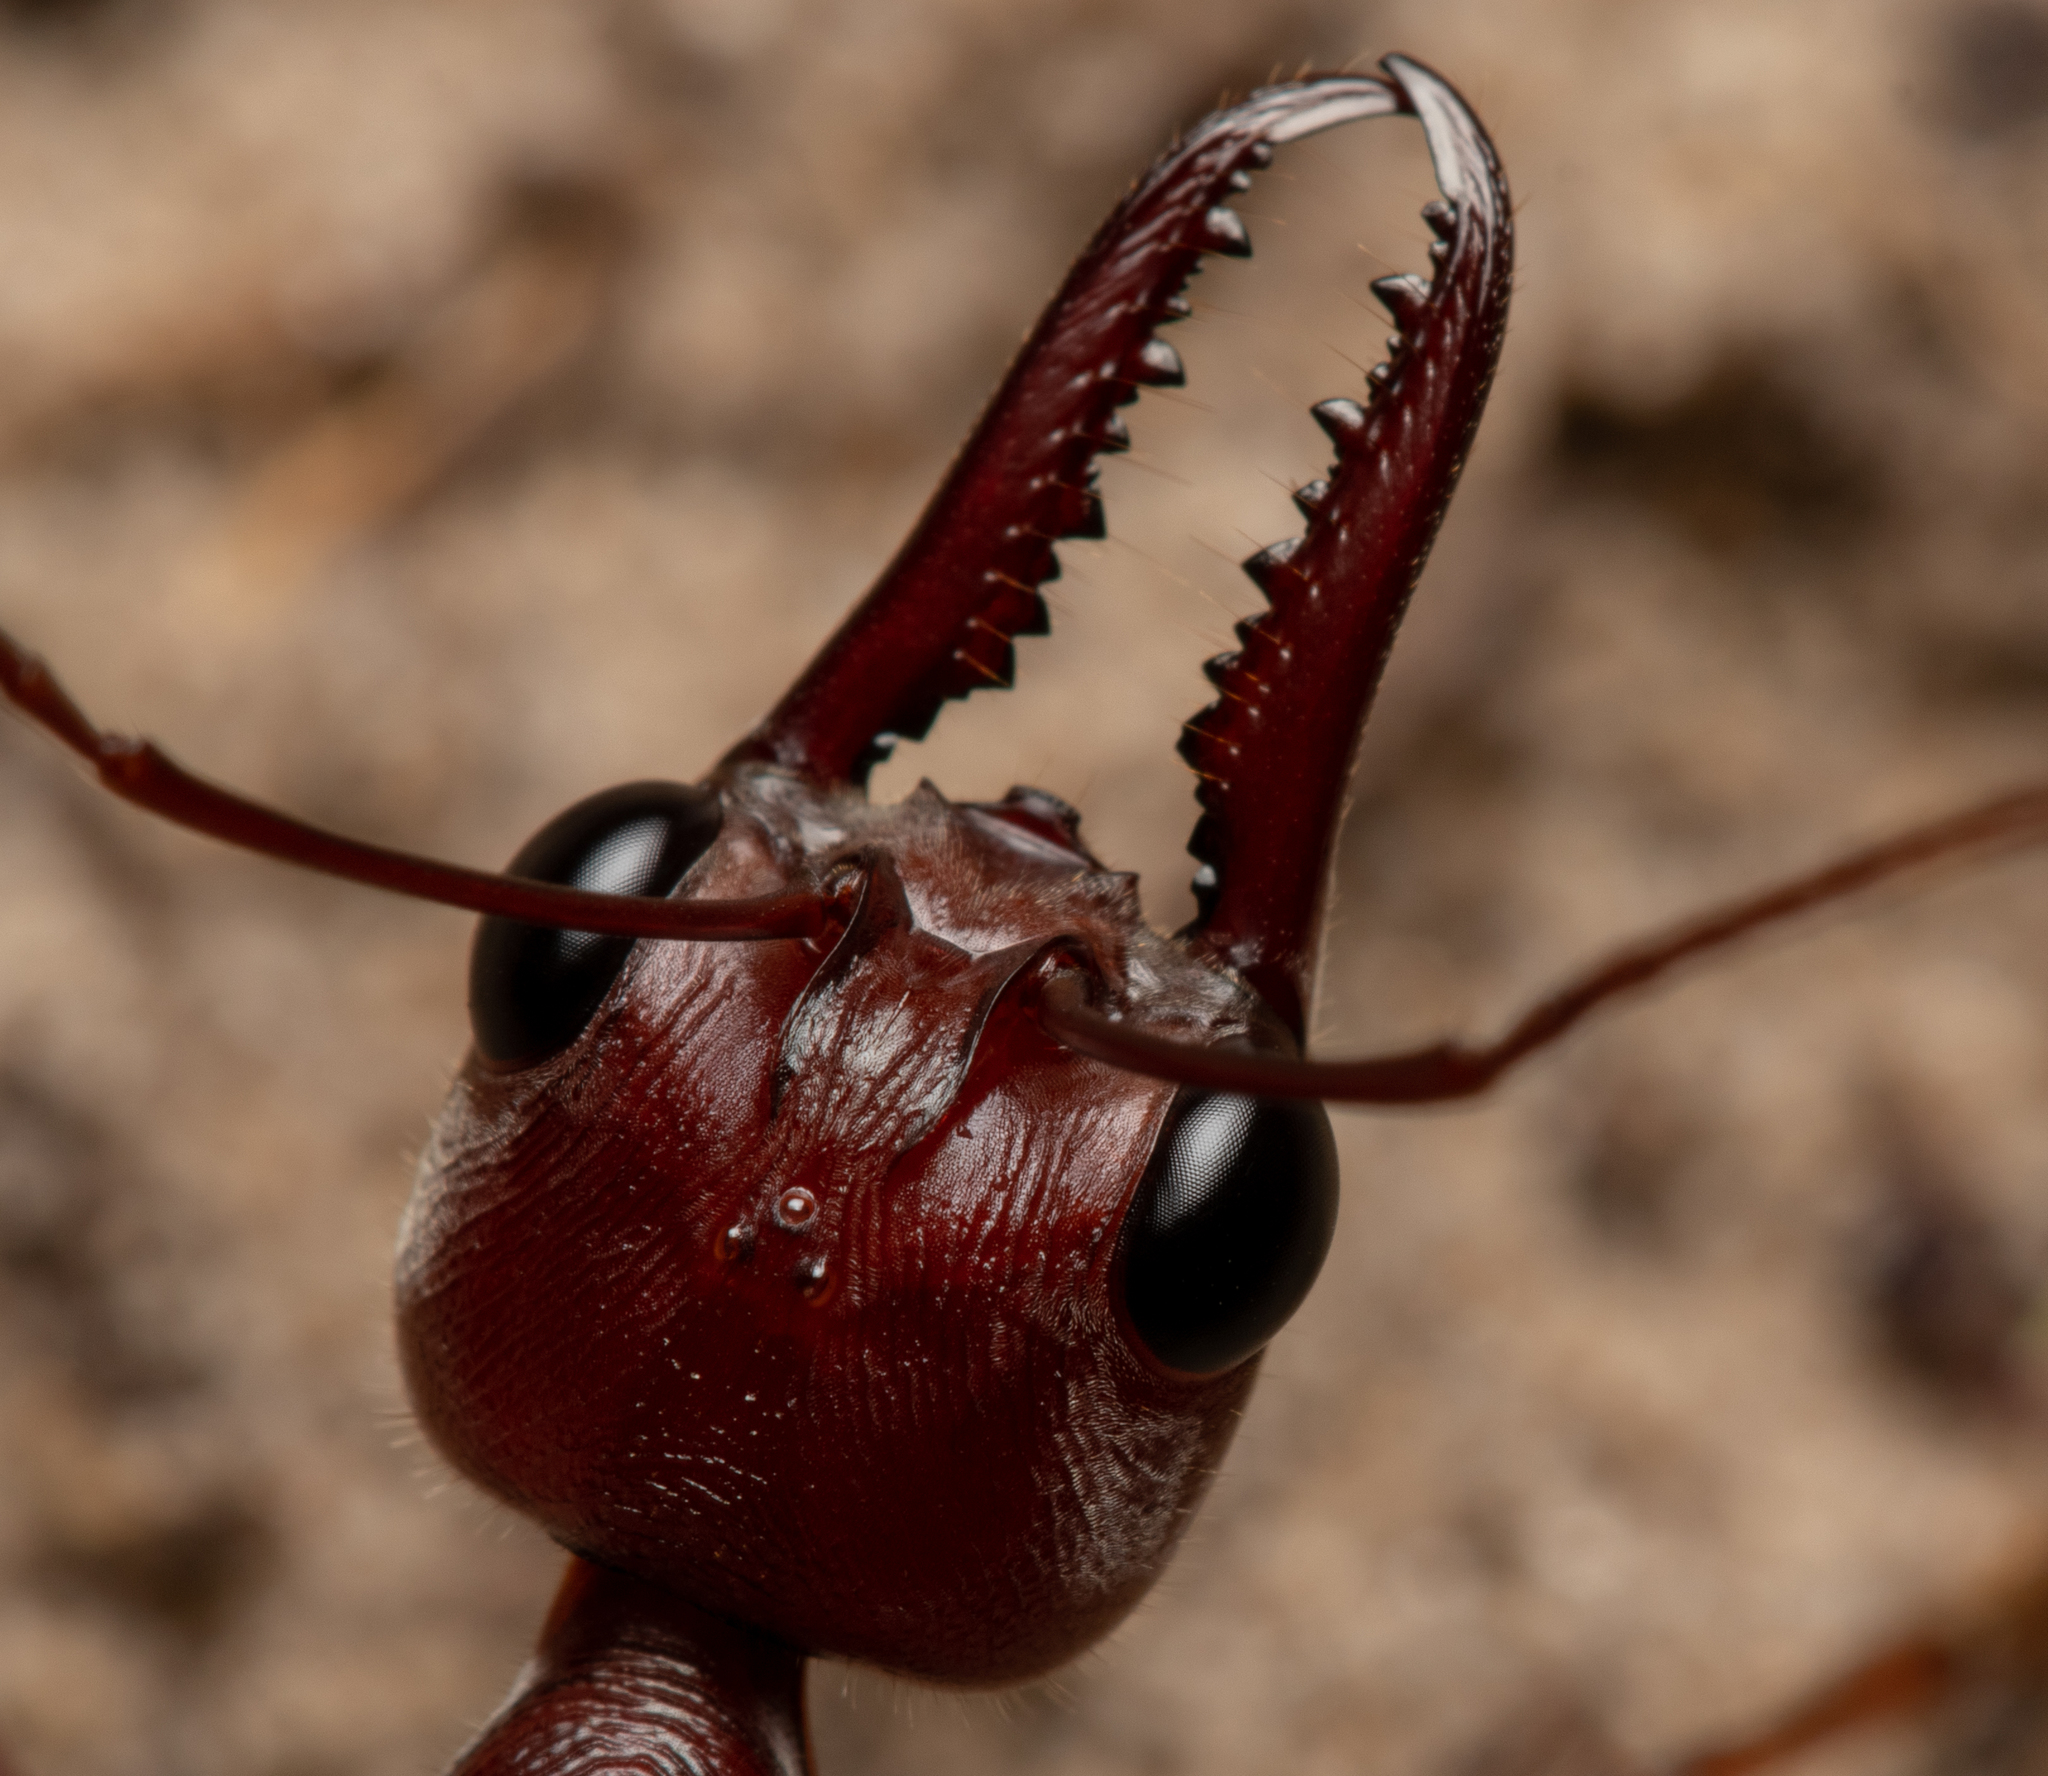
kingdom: Animalia
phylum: Arthropoda
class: Insecta
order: Hymenoptera
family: Formicidae
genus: Myrmecia
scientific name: Myrmecia brevinoda
